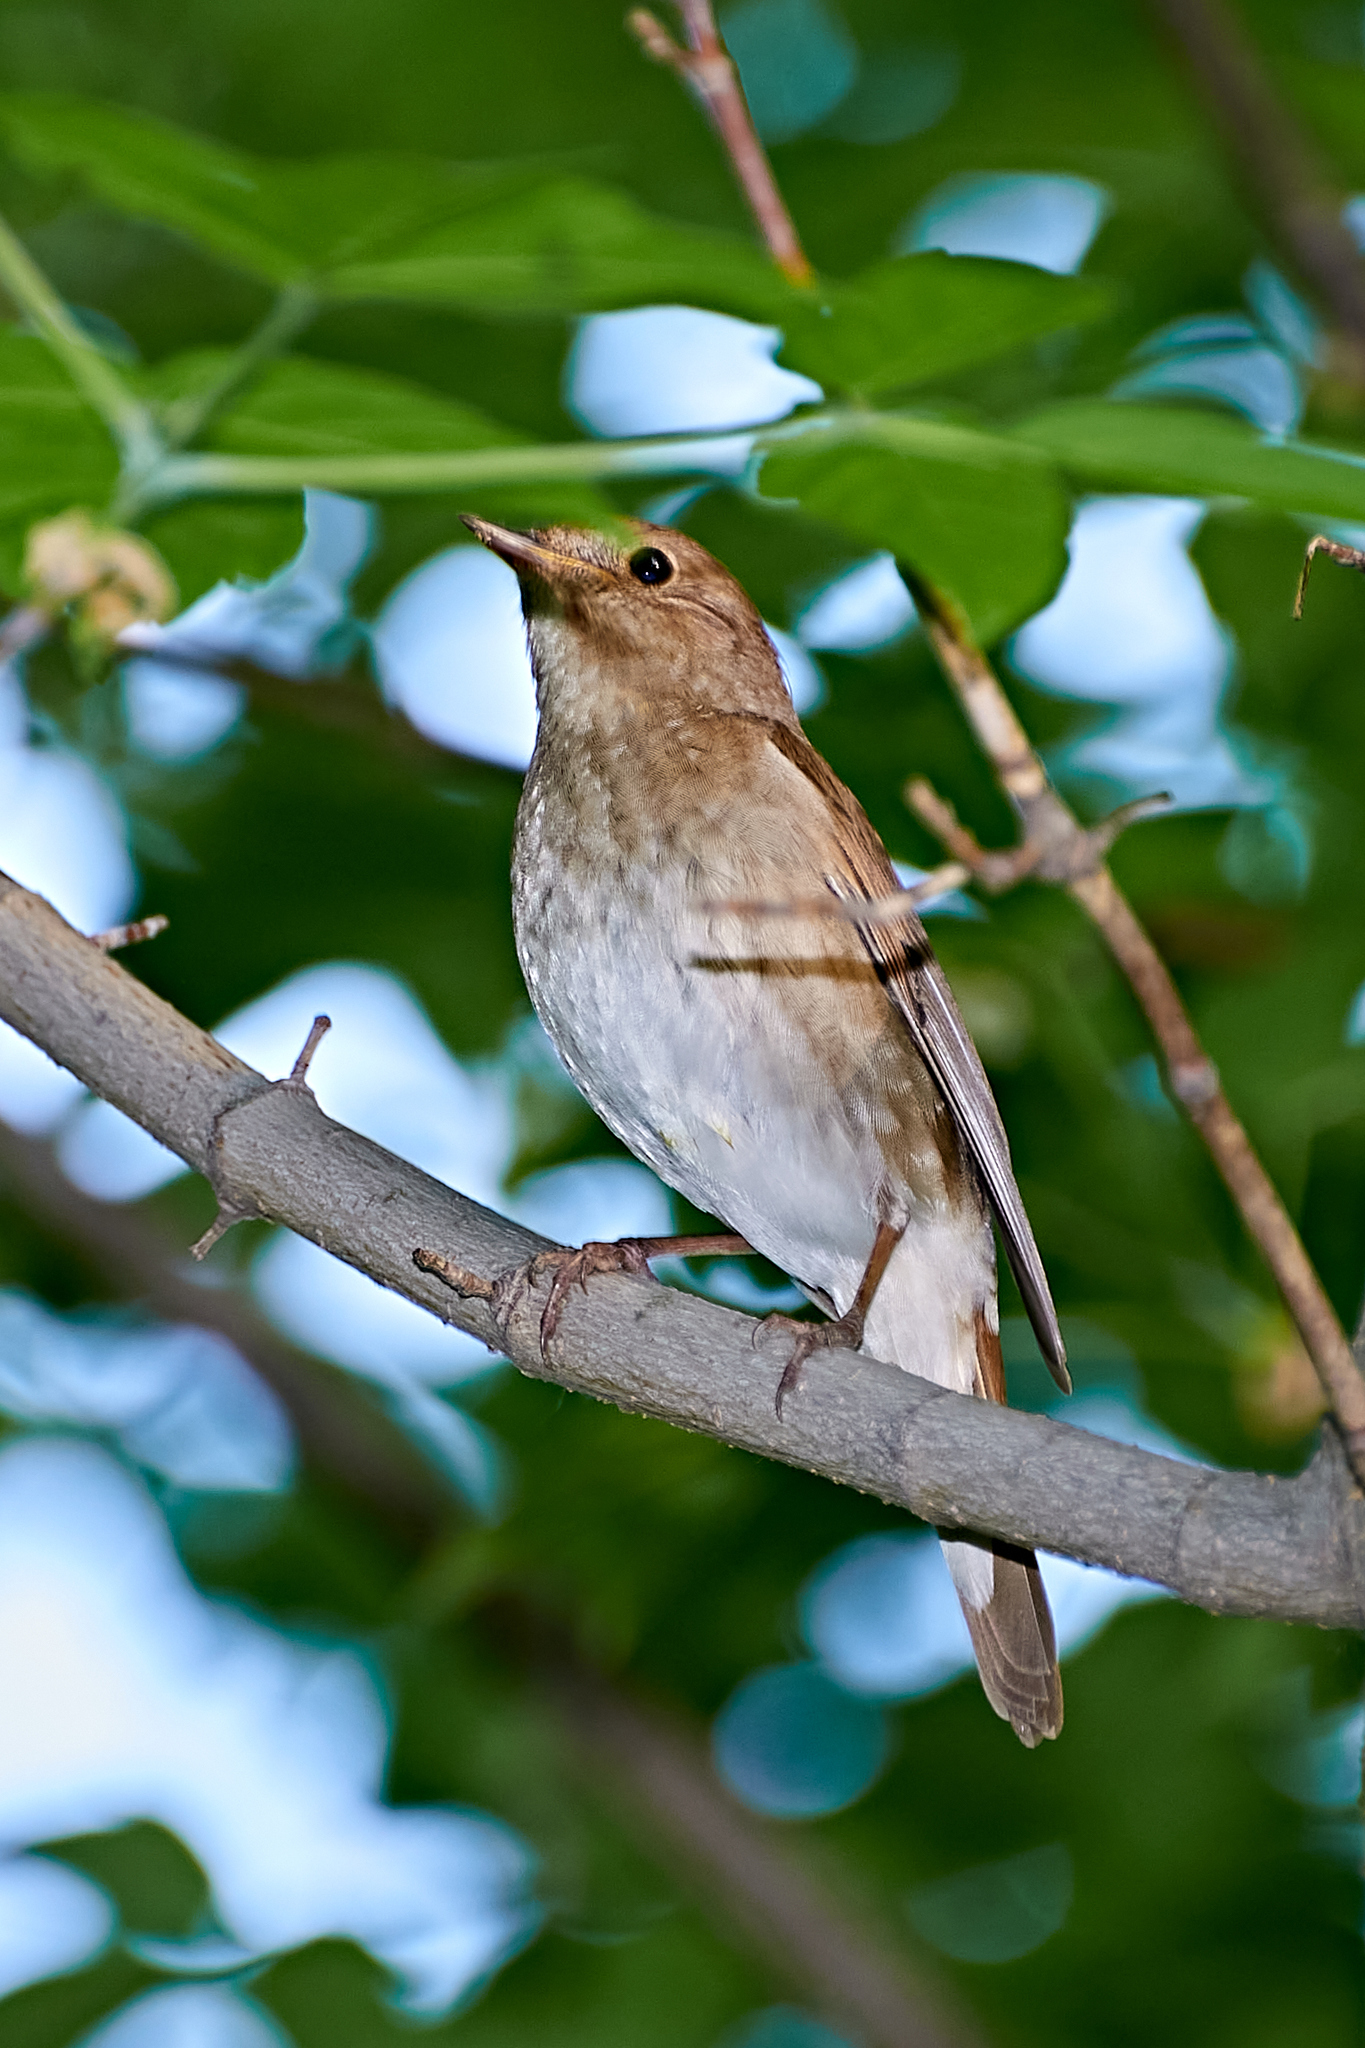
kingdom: Animalia
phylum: Chordata
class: Aves
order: Passeriformes
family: Muscicapidae
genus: Luscinia
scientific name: Luscinia luscinia
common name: Thrush nightingale
